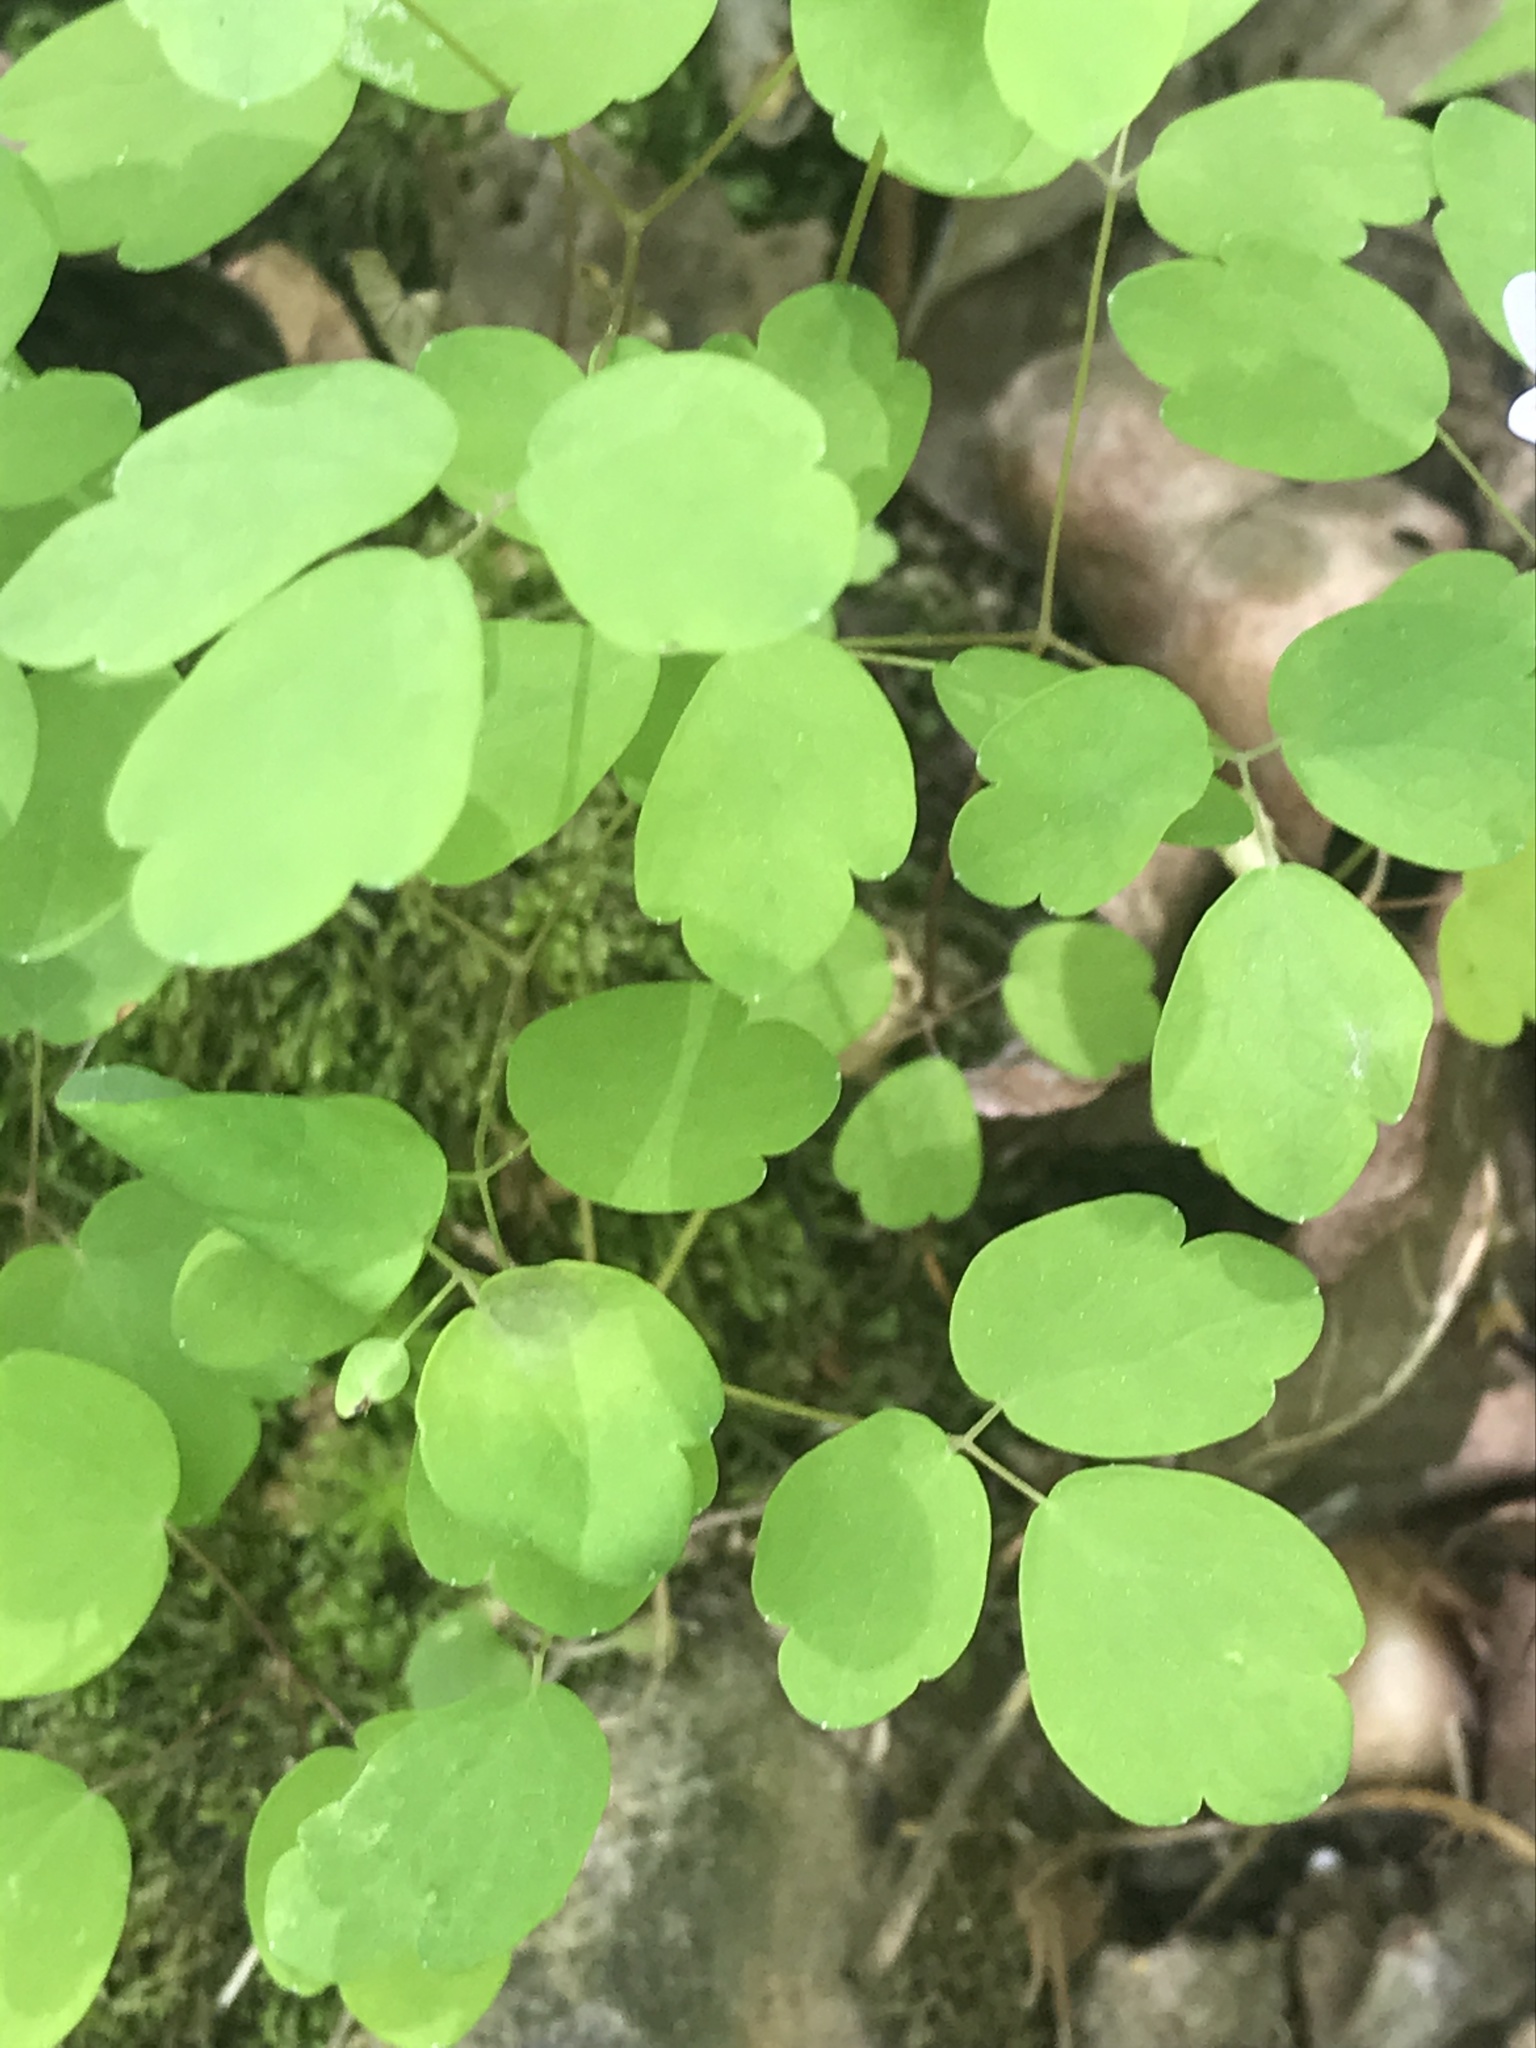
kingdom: Plantae
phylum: Tracheophyta
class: Magnoliopsida
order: Ranunculales
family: Ranunculaceae
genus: Thalictrum
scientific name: Thalictrum thalictroides
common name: Rue-anemone
